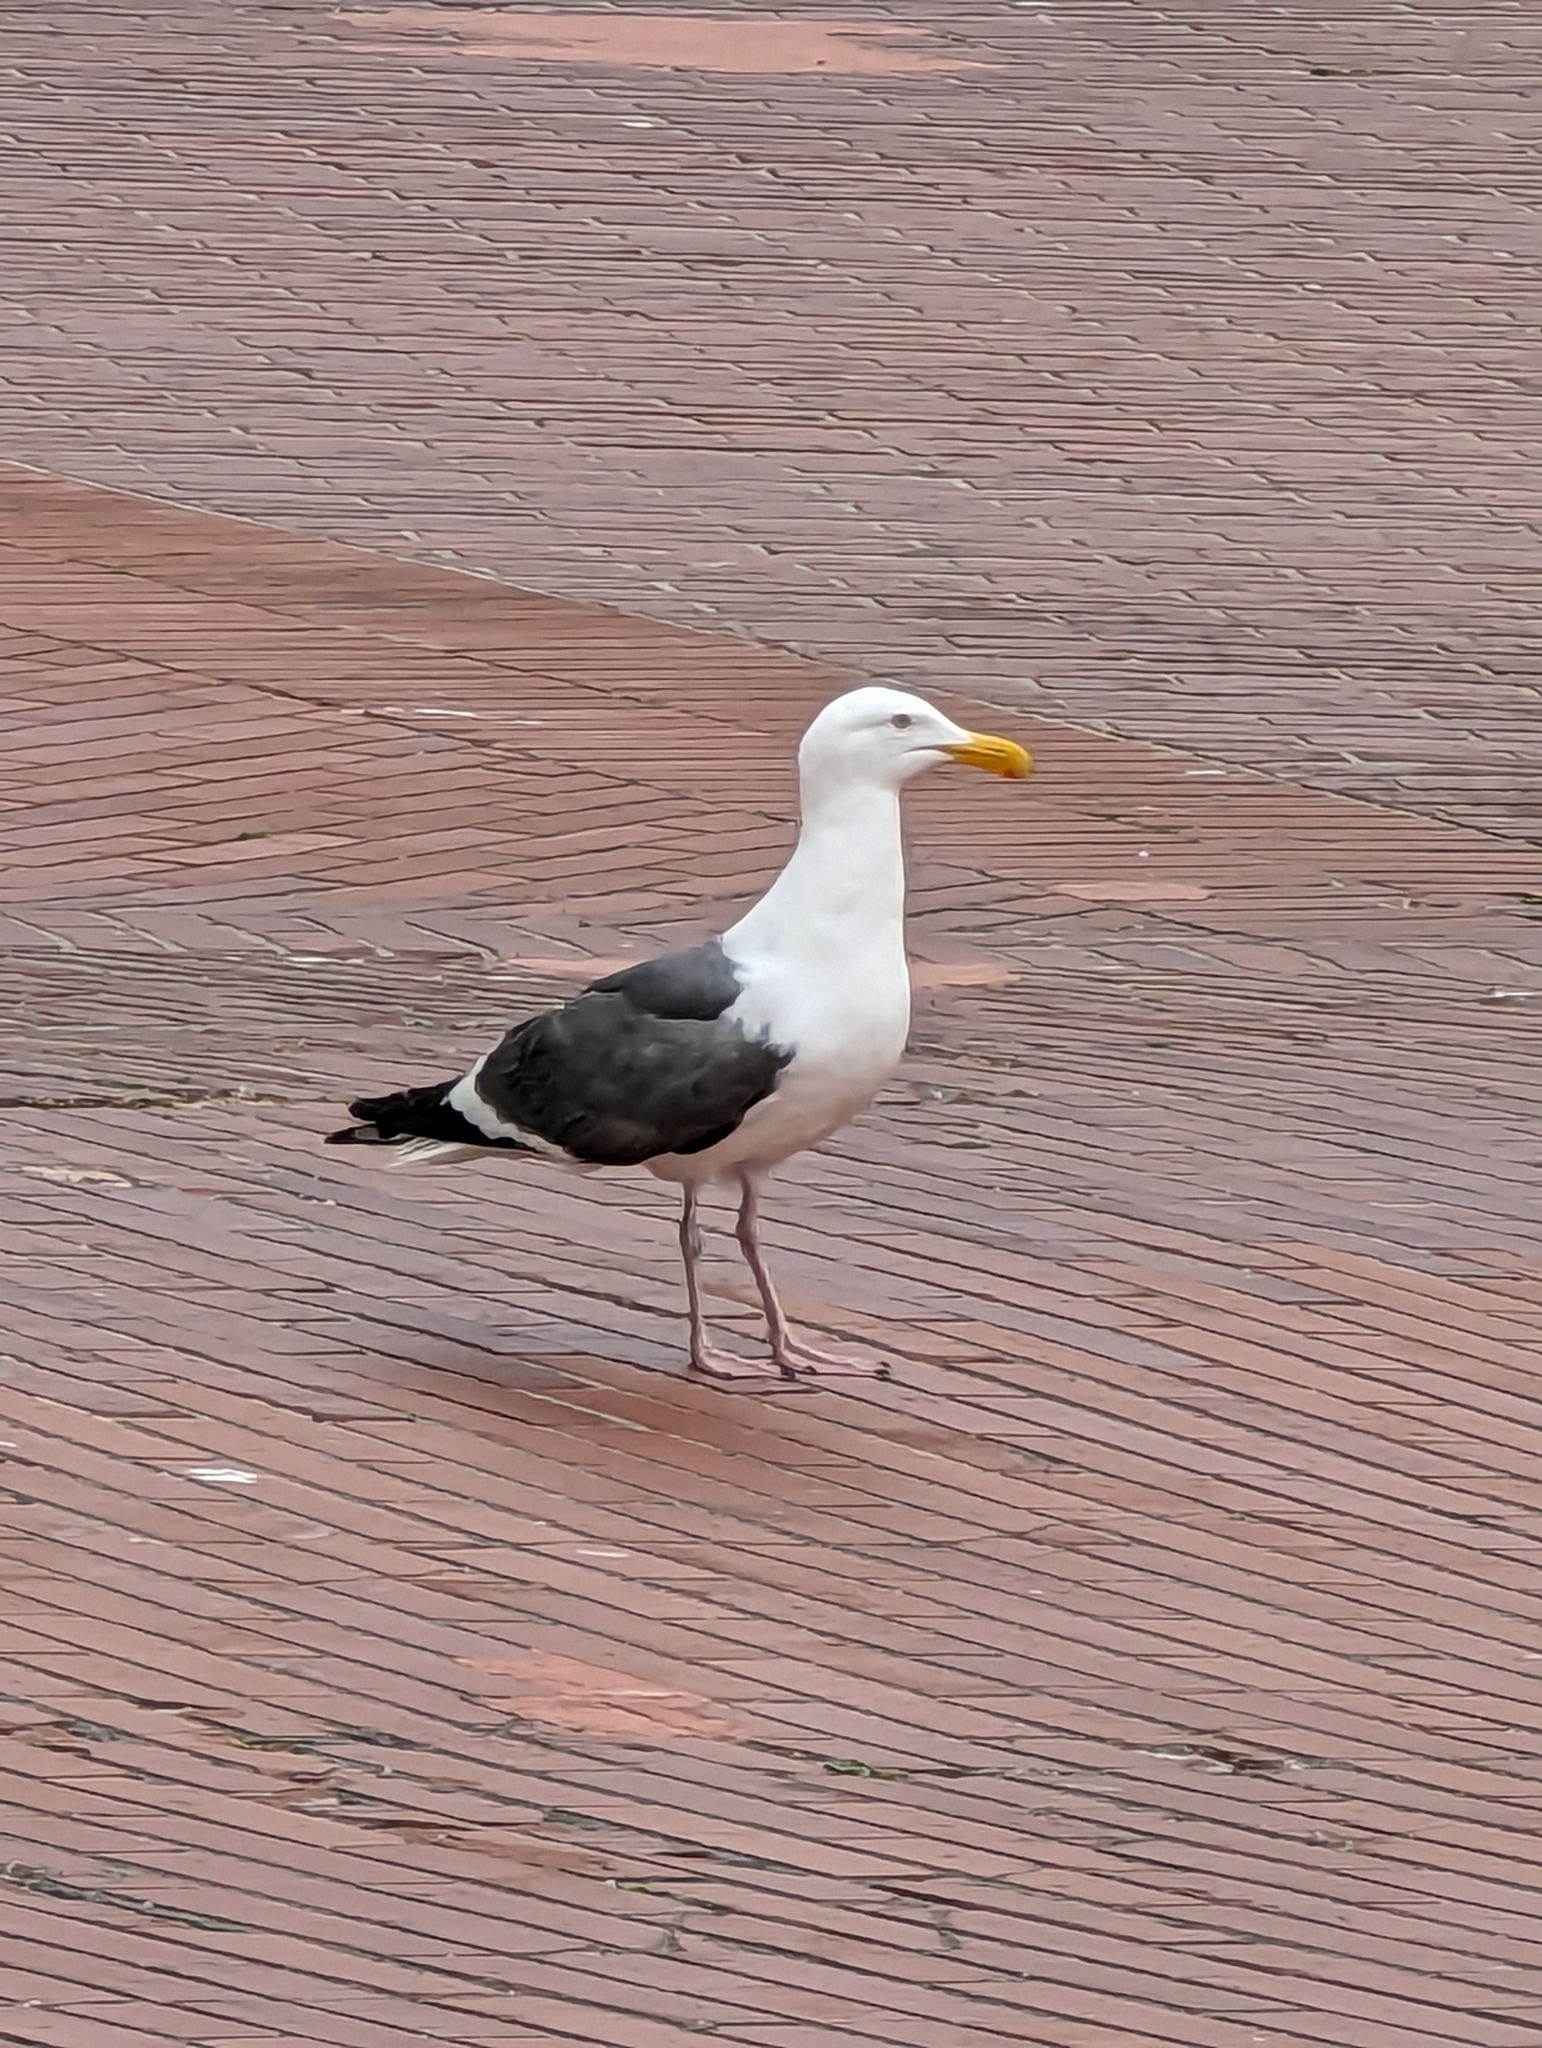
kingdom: Animalia
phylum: Chordata
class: Aves
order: Charadriiformes
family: Laridae
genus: Larus
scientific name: Larus occidentalis
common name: Western gull
